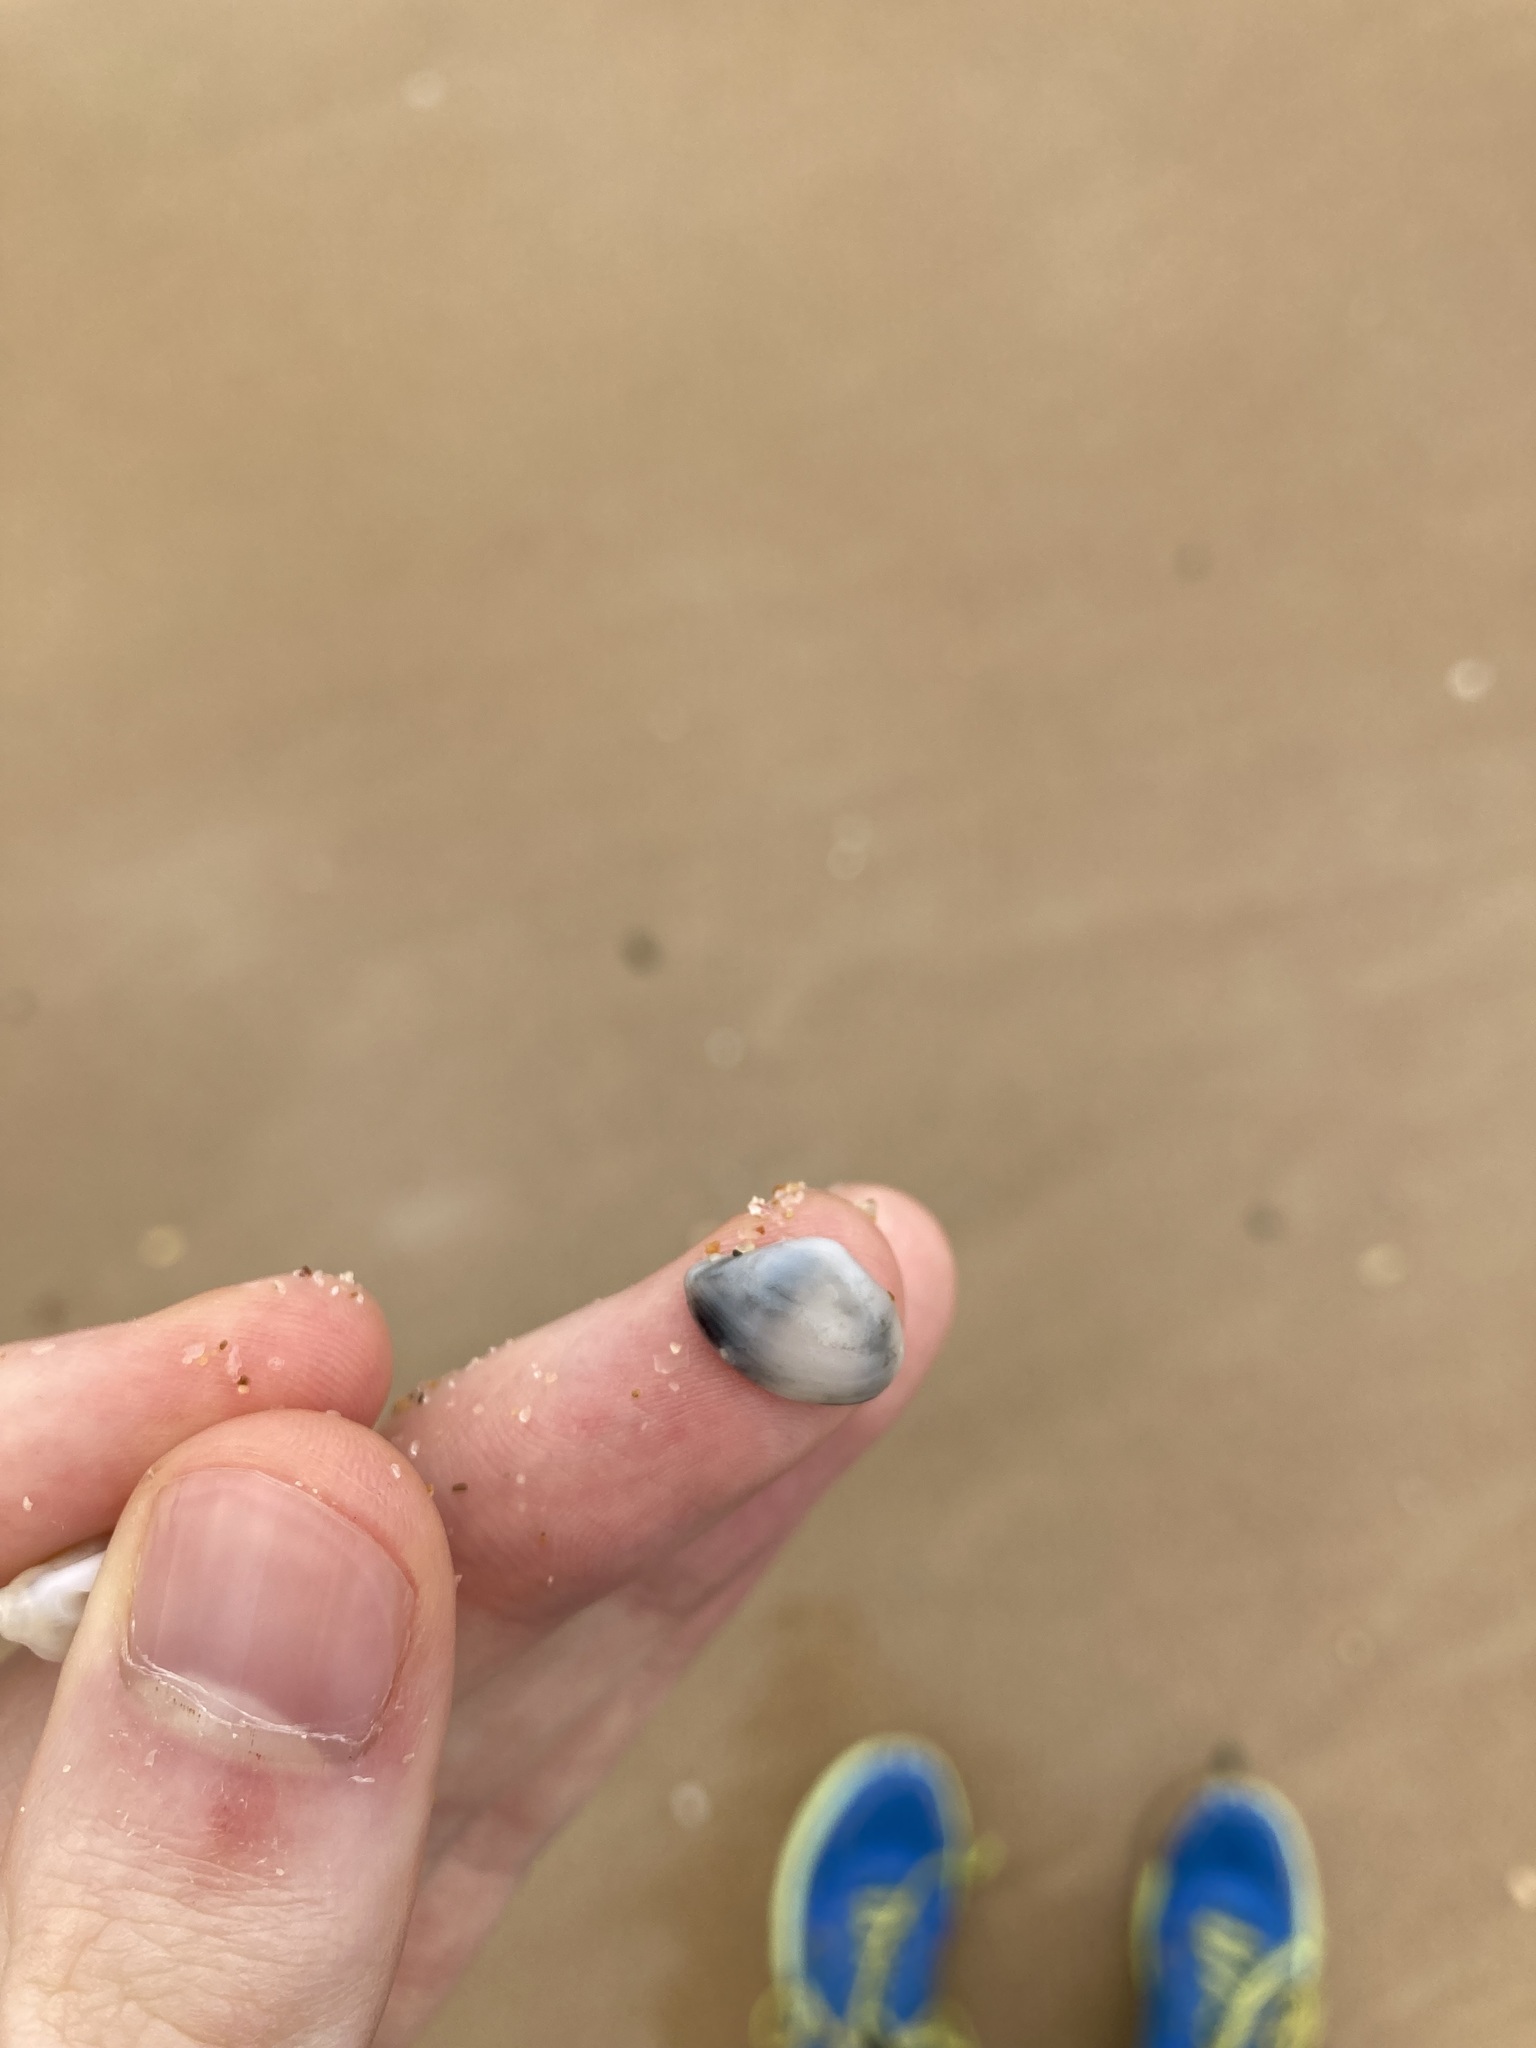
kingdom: Animalia
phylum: Mollusca
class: Bivalvia
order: Myida
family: Corbulidae
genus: Corbula
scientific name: Corbula smithiana
